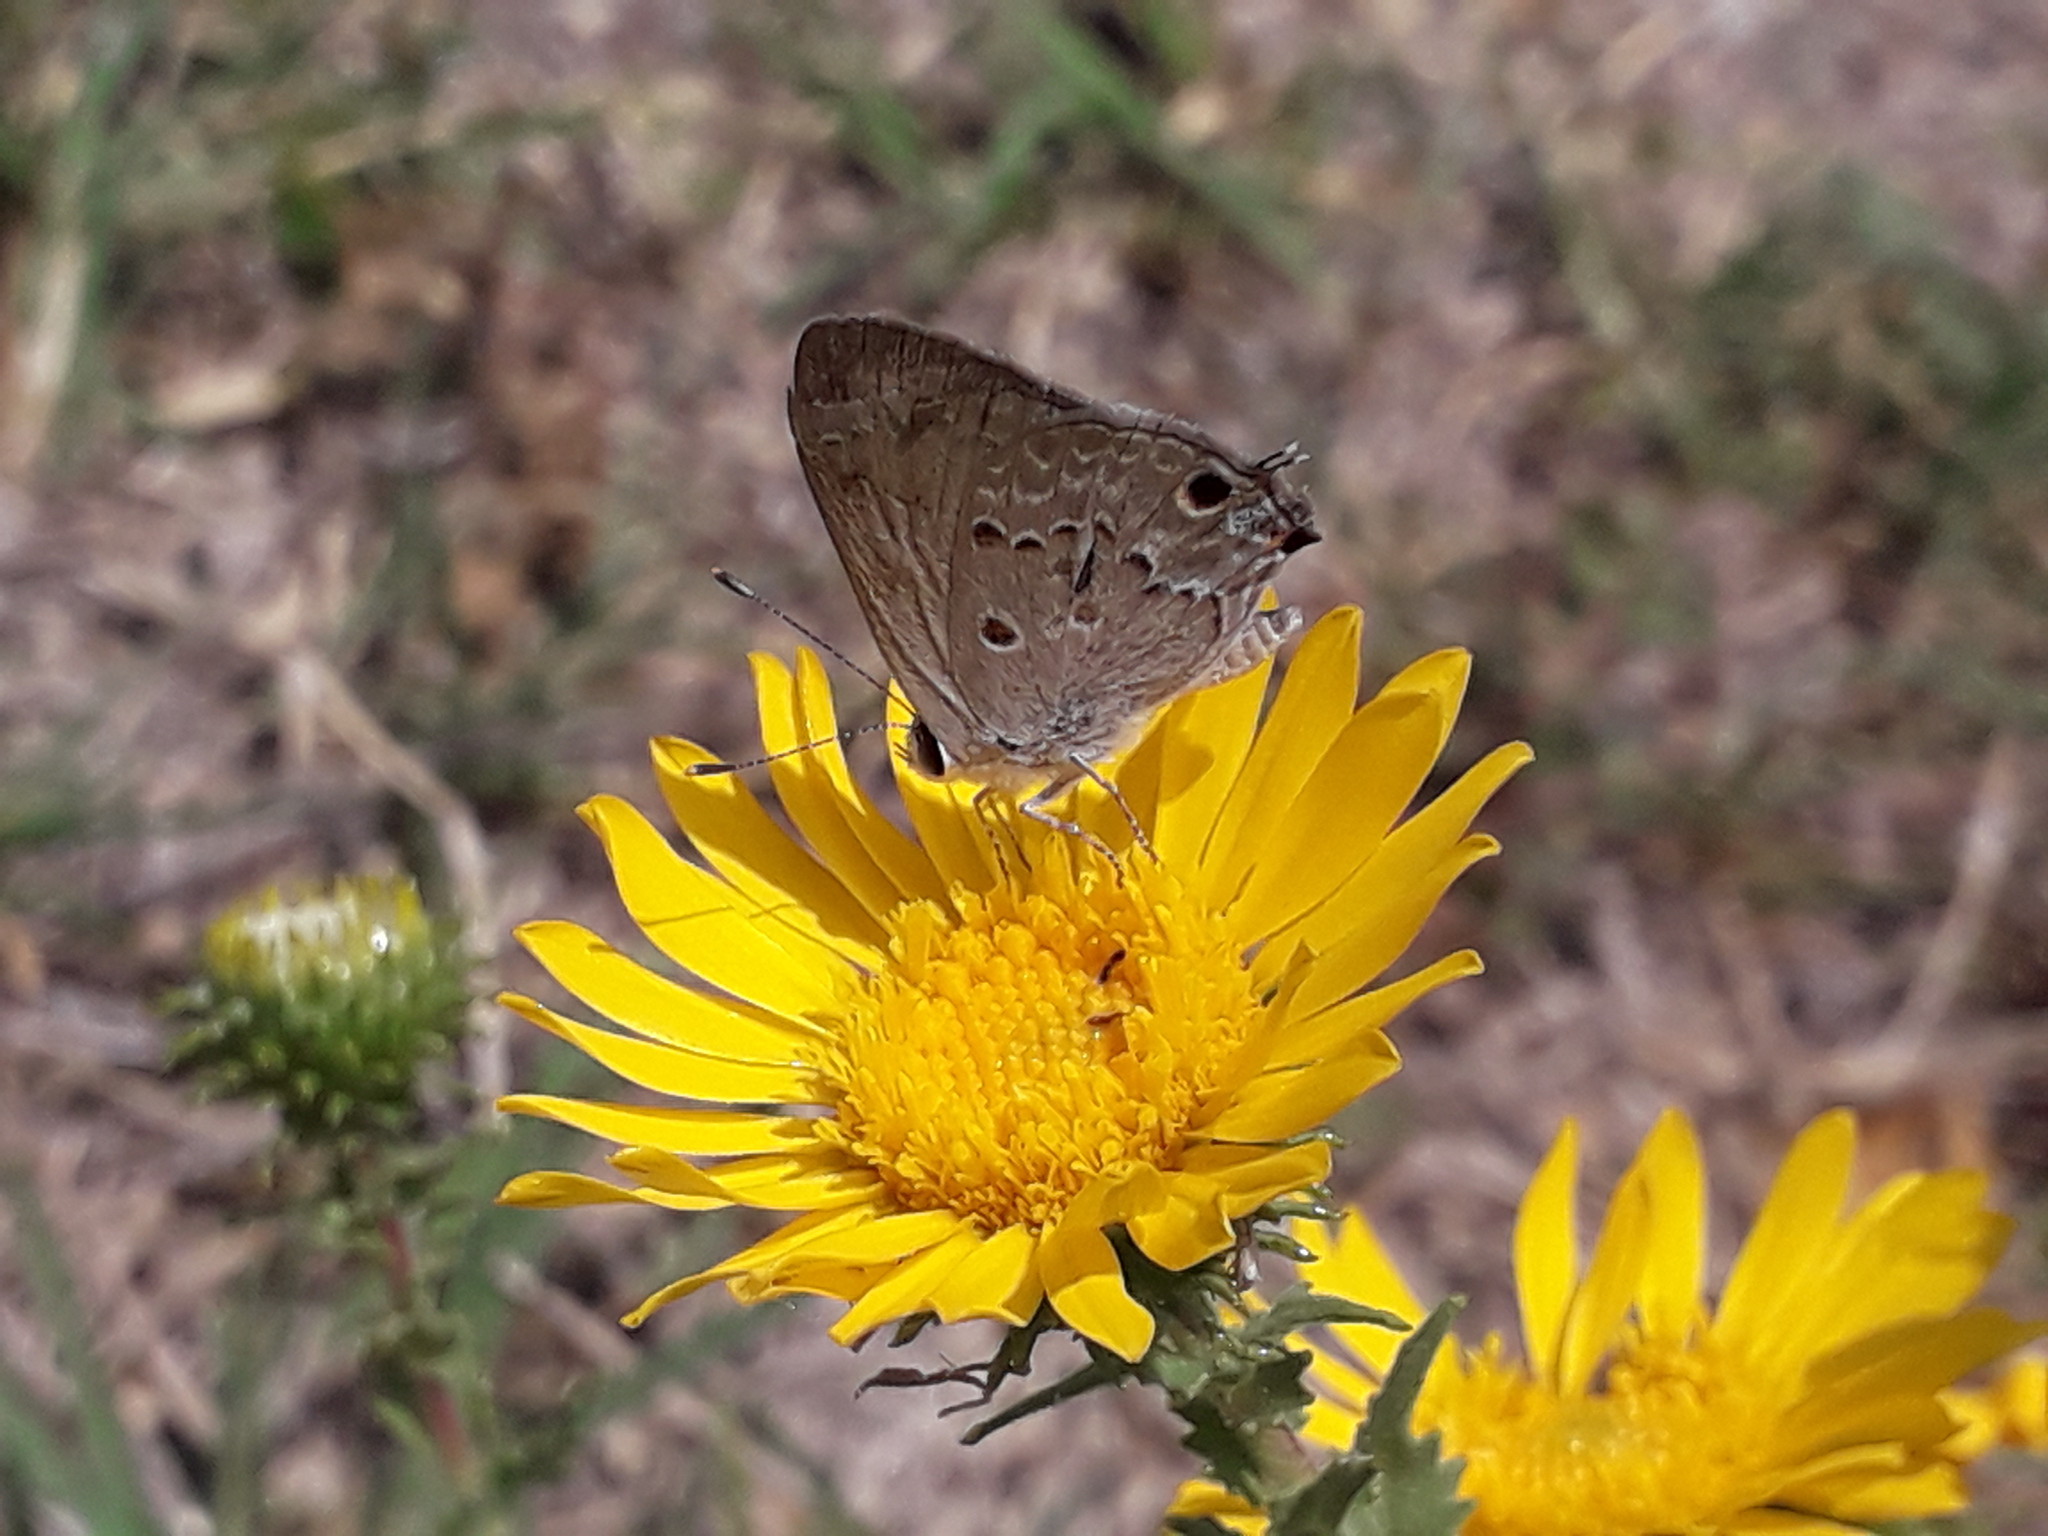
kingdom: Animalia
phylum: Arthropoda
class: Insecta
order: Lepidoptera
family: Lycaenidae
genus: Callicista
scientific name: Callicista columella
